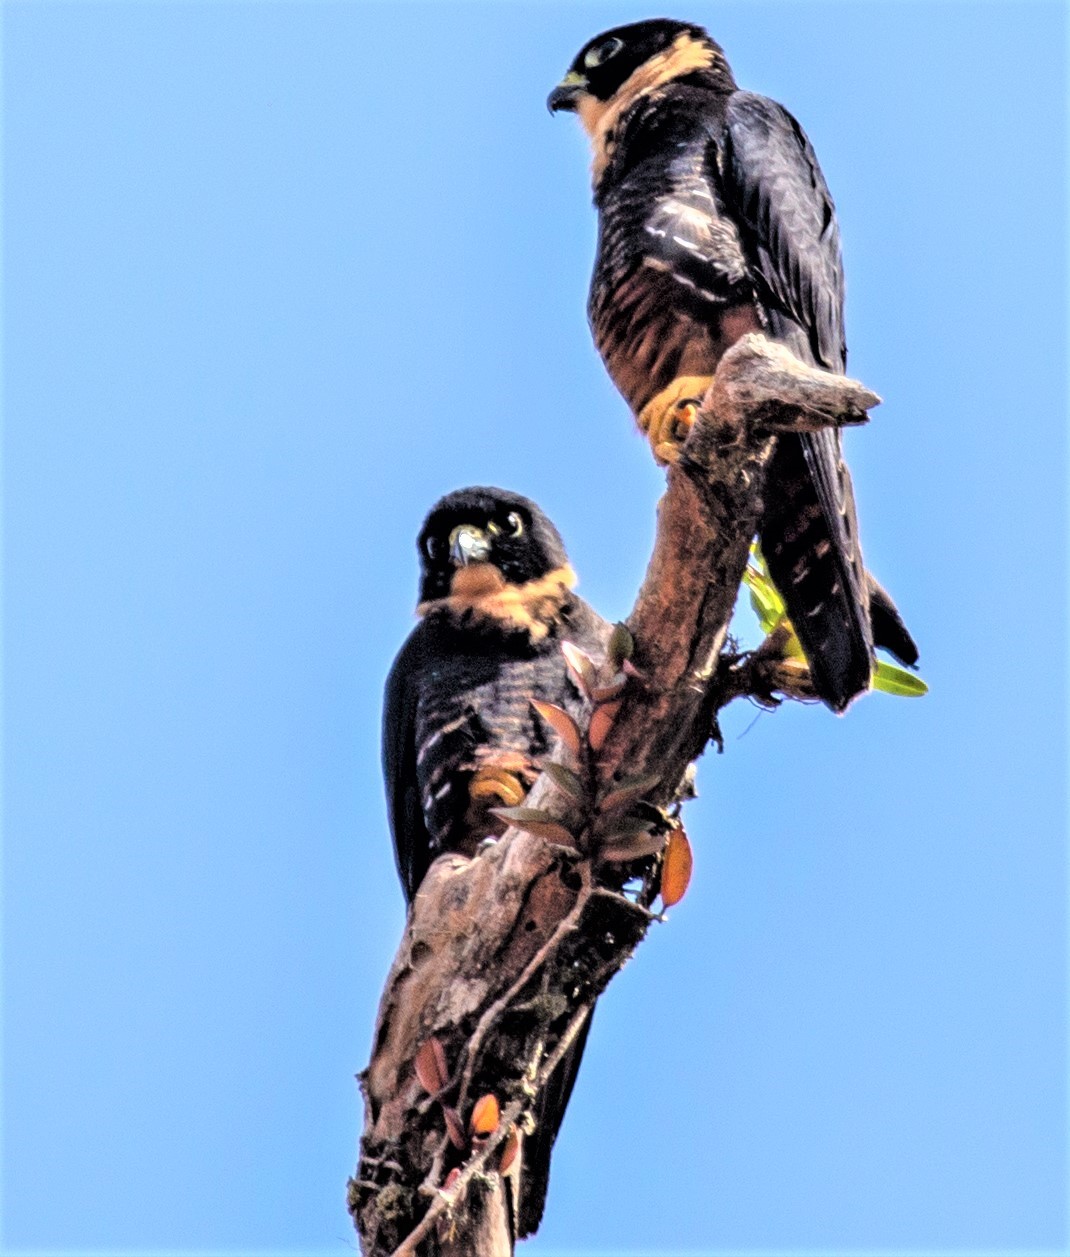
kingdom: Animalia
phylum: Chordata
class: Aves
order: Falconiformes
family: Falconidae
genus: Falco
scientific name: Falco rufigularis
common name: Bat falcon
